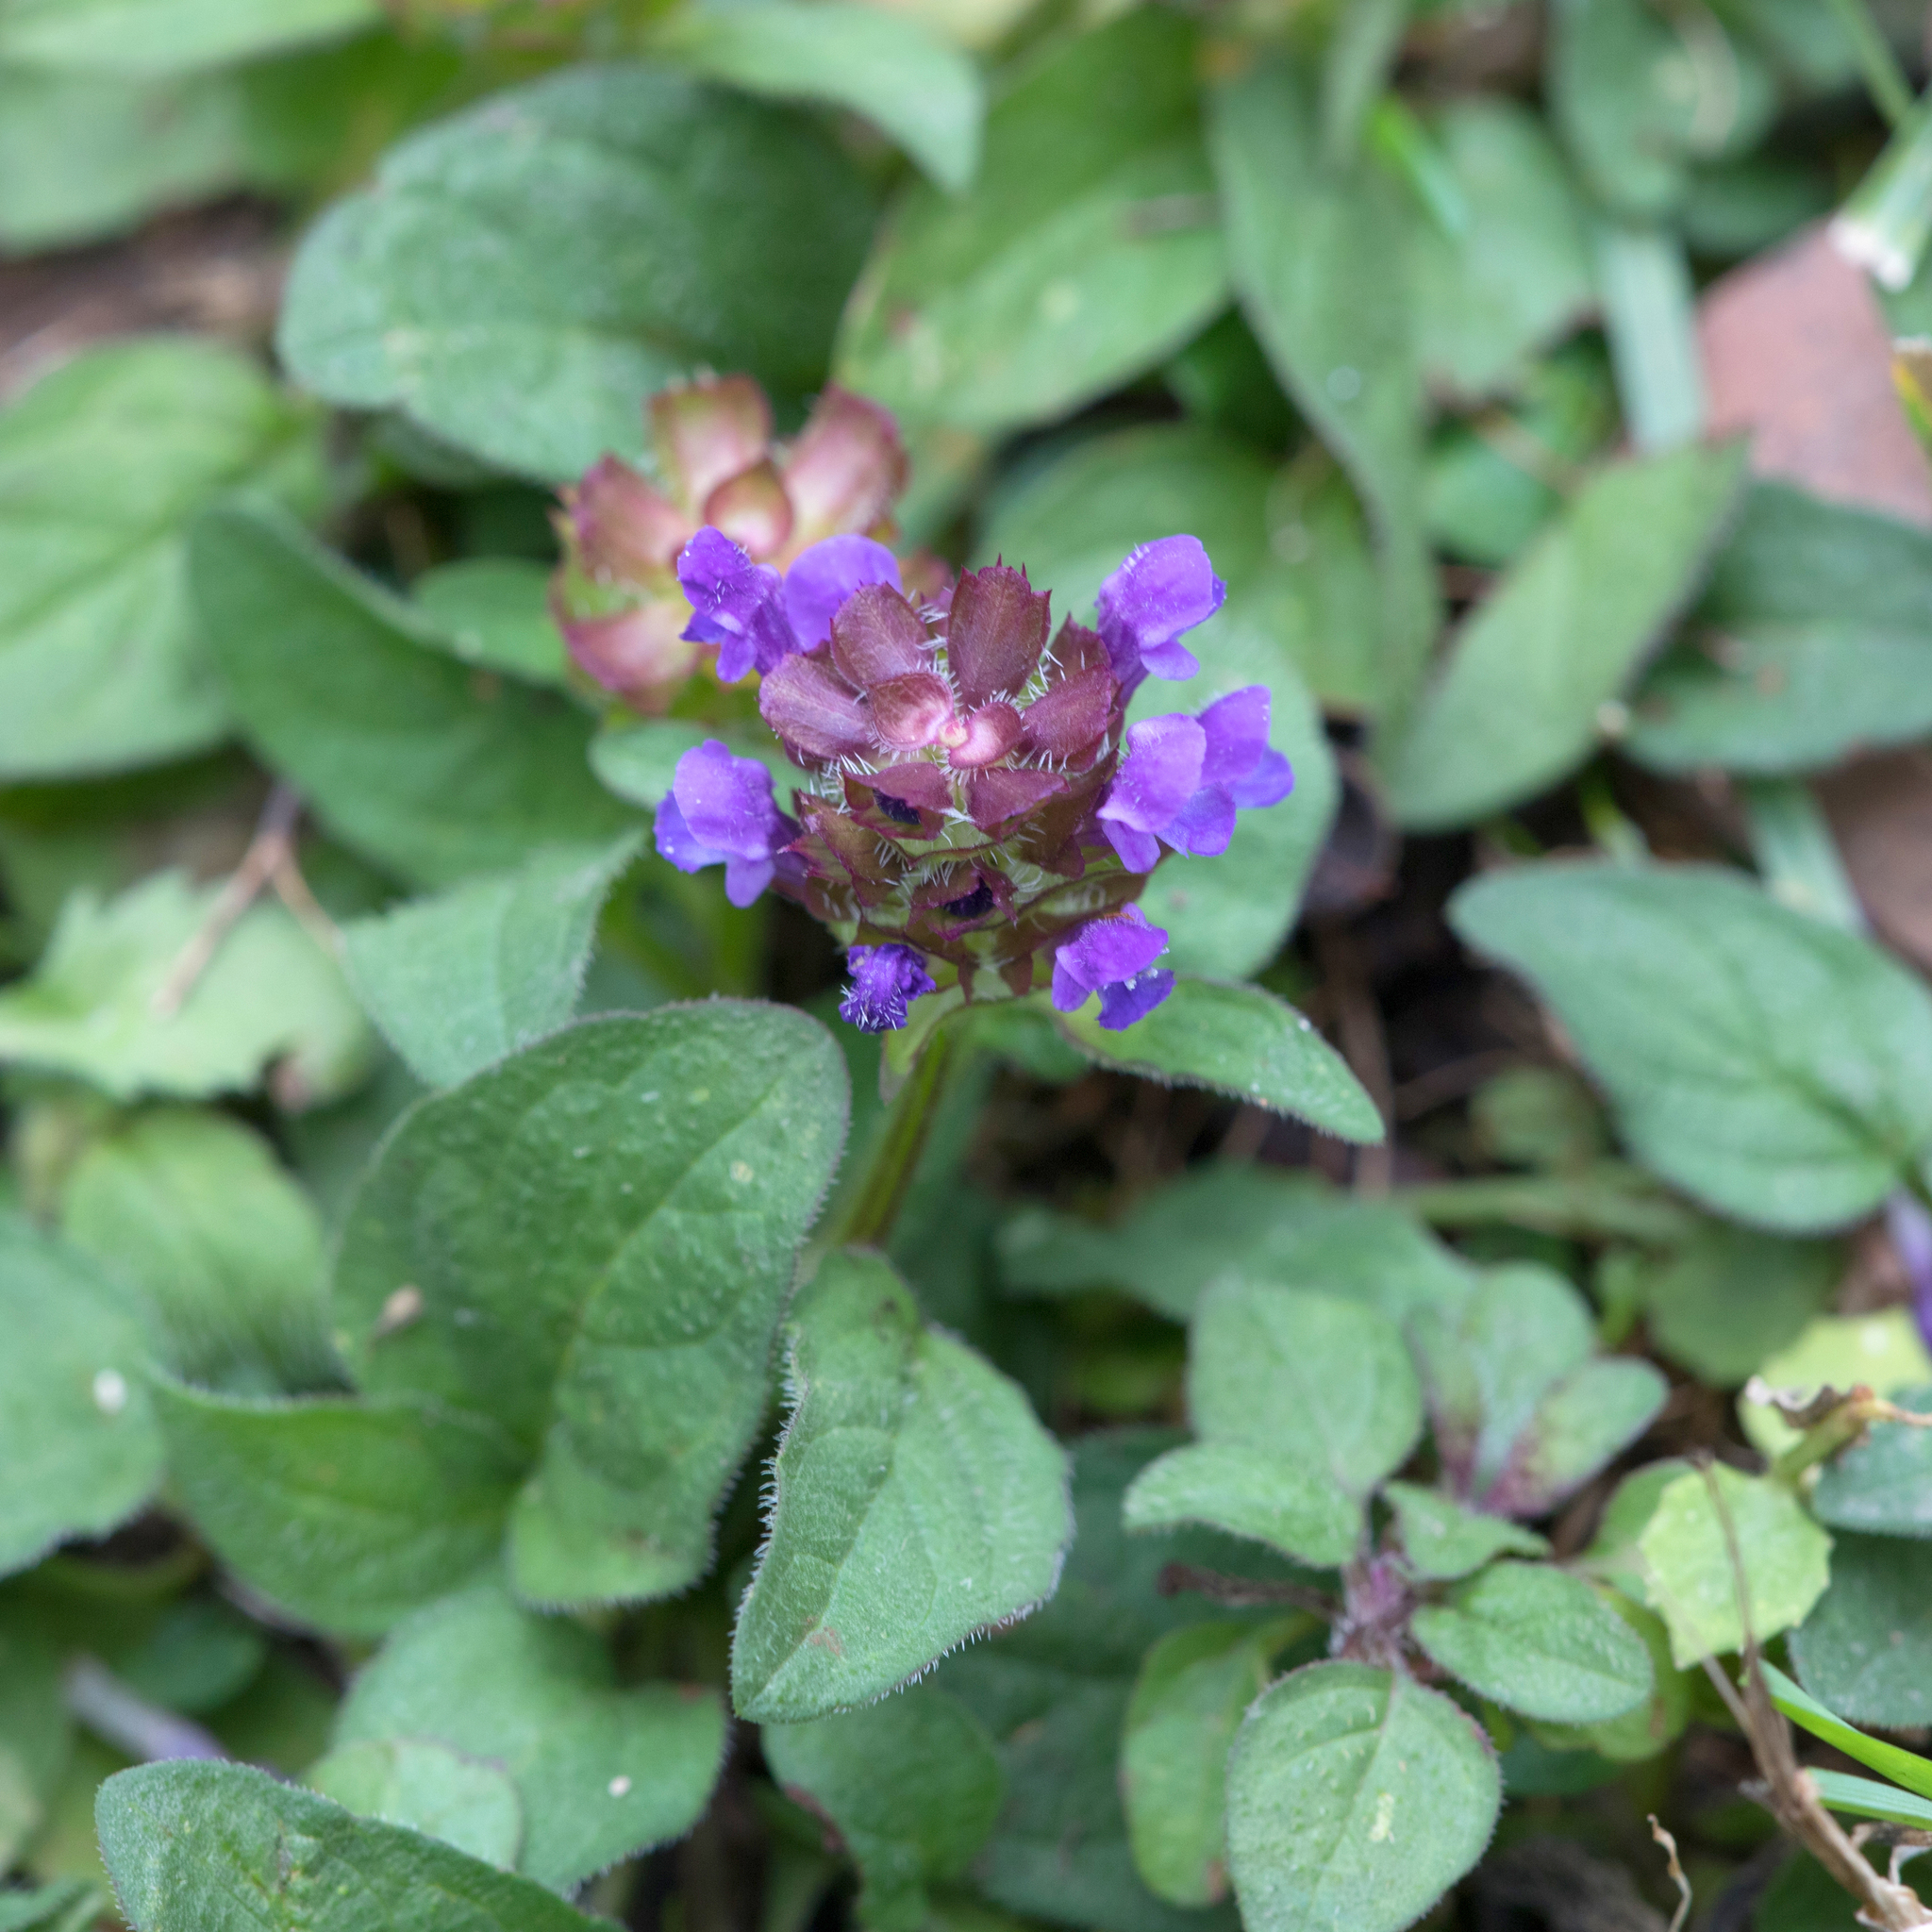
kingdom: Plantae
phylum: Tracheophyta
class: Magnoliopsida
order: Lamiales
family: Lamiaceae
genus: Prunella
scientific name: Prunella vulgaris
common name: Heal-all
